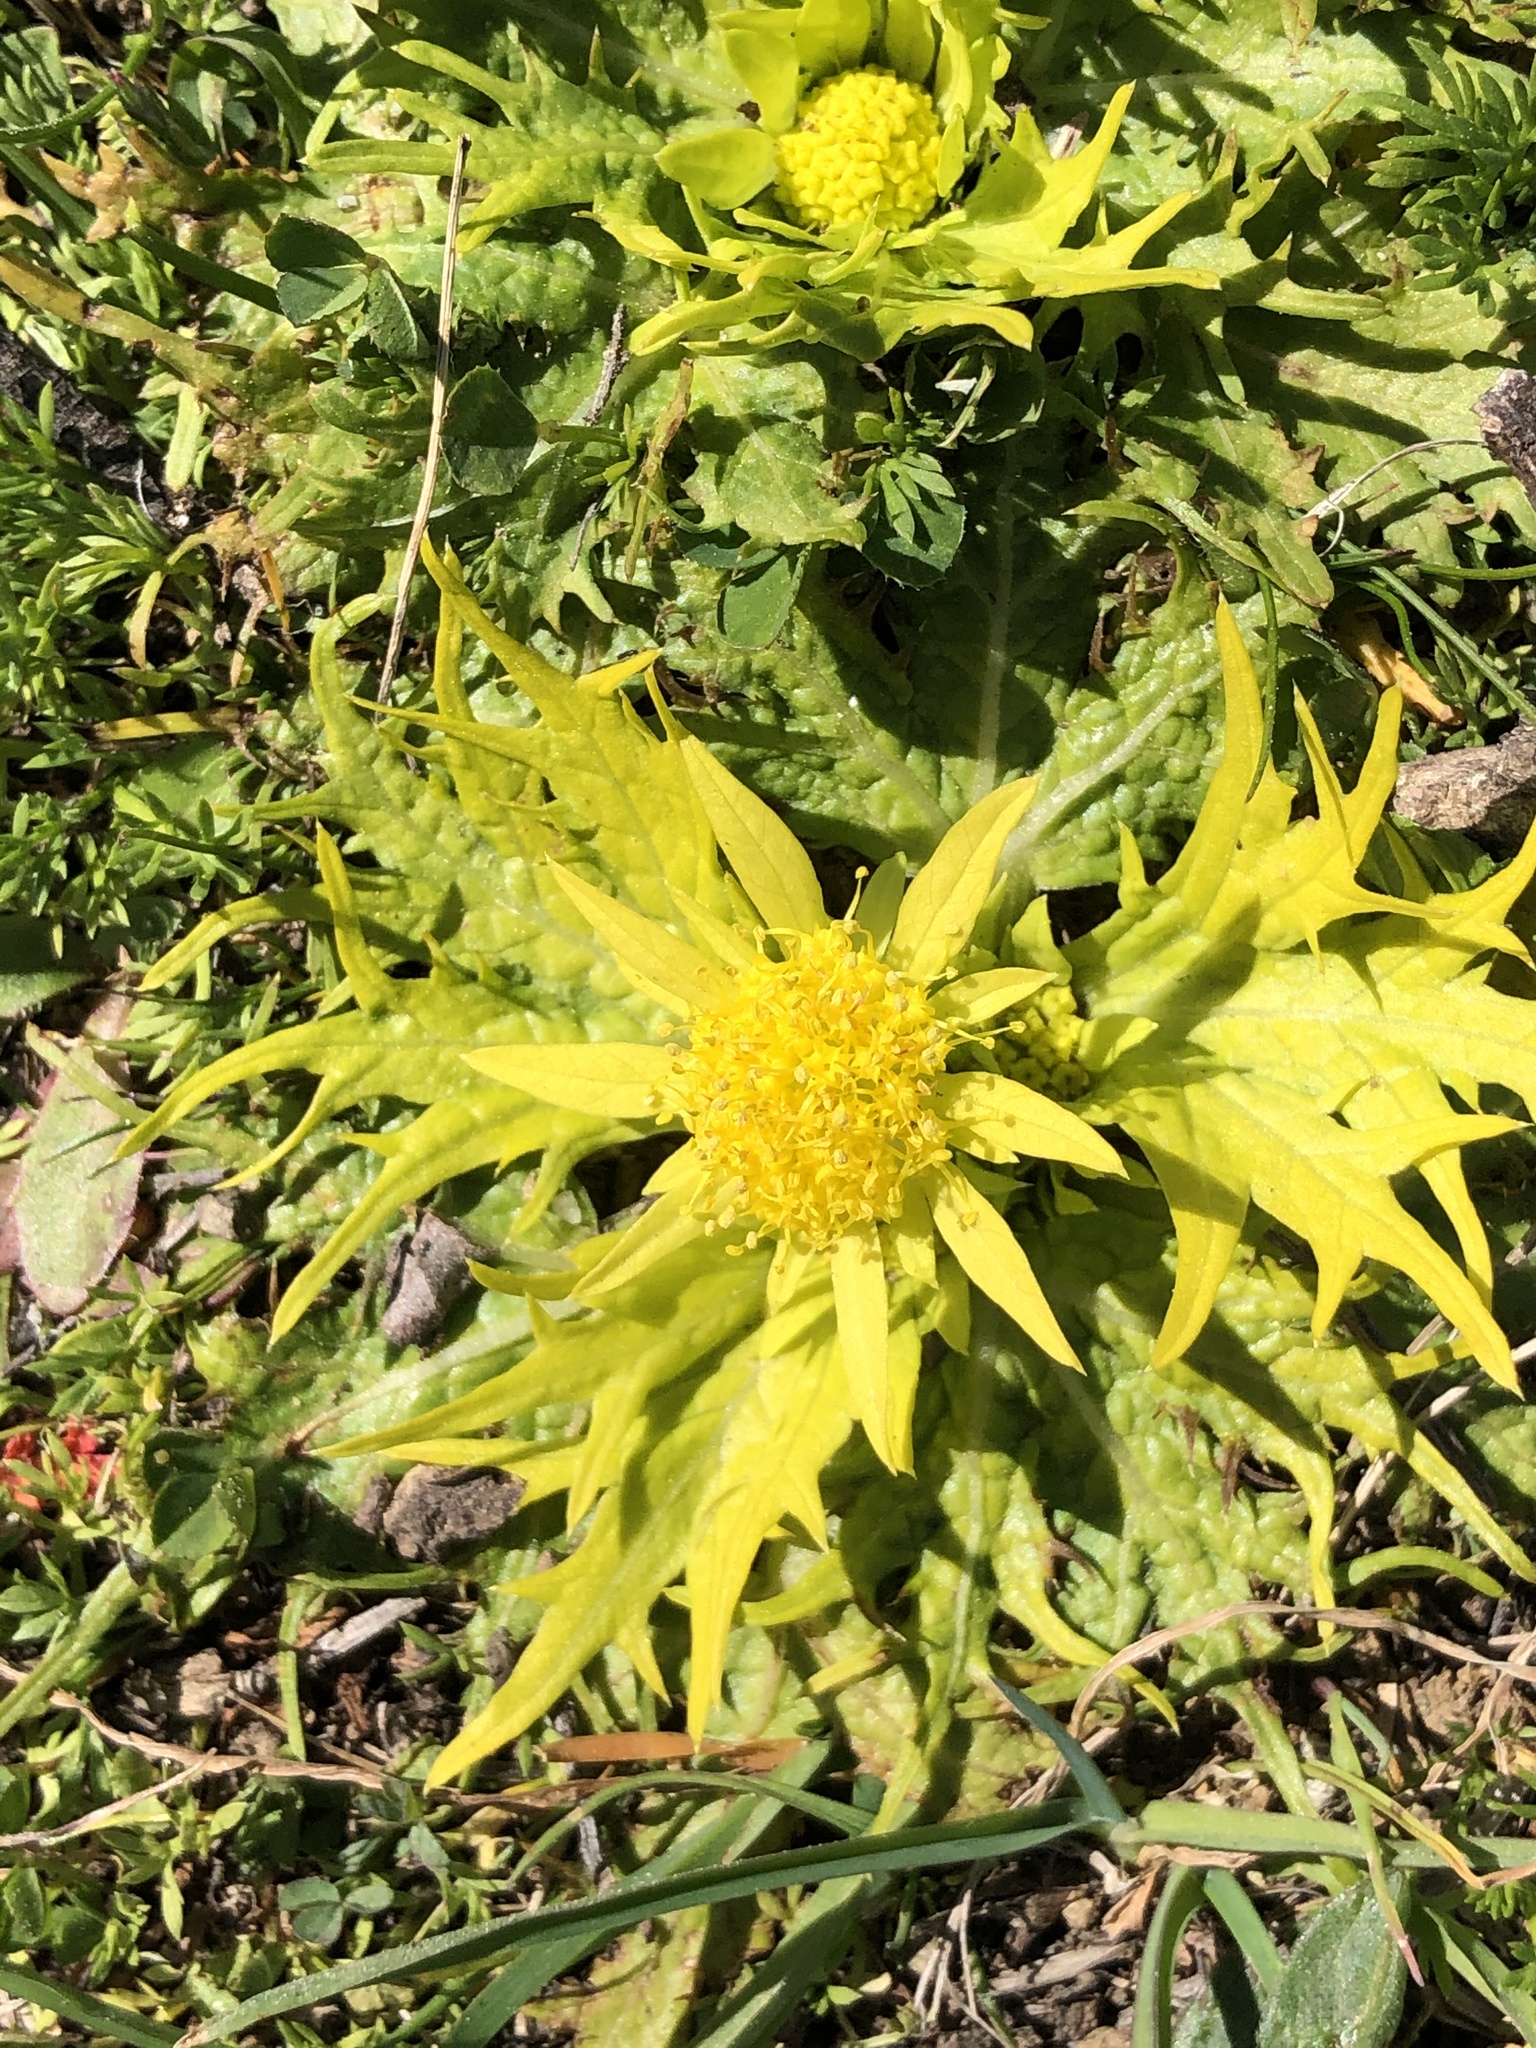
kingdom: Plantae
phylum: Tracheophyta
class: Magnoliopsida
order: Apiales
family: Apiaceae
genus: Sanicula
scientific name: Sanicula arctopoides
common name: Footsteps-of-spring
